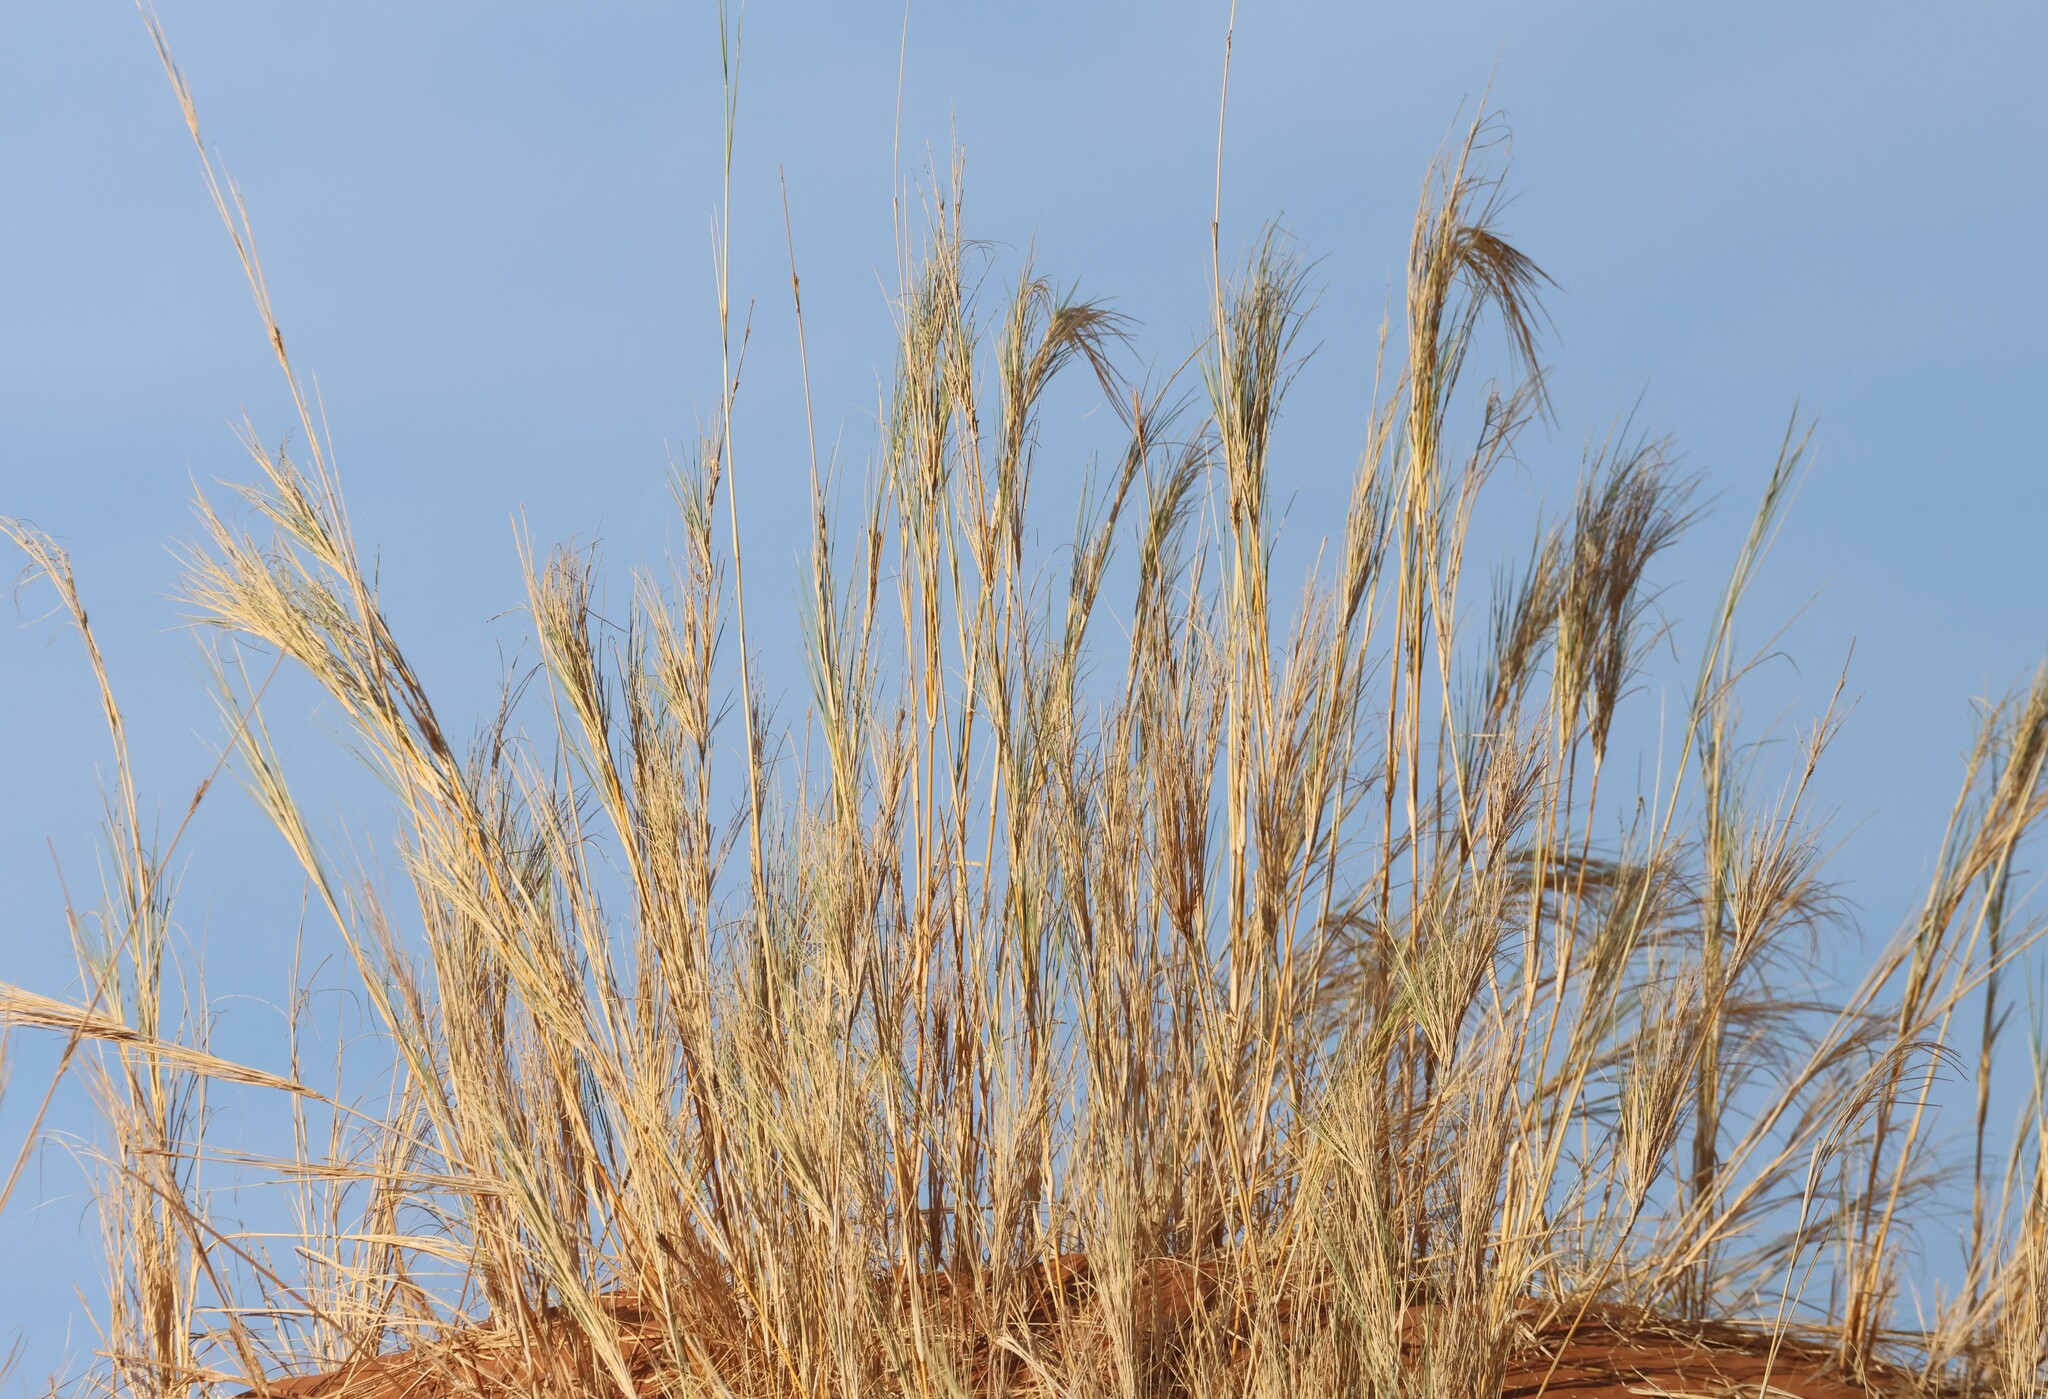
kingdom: Plantae
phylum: Tracheophyta
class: Liliopsida
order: Poales
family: Poaceae
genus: Stipagrostis
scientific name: Stipagrostis sabulicola
